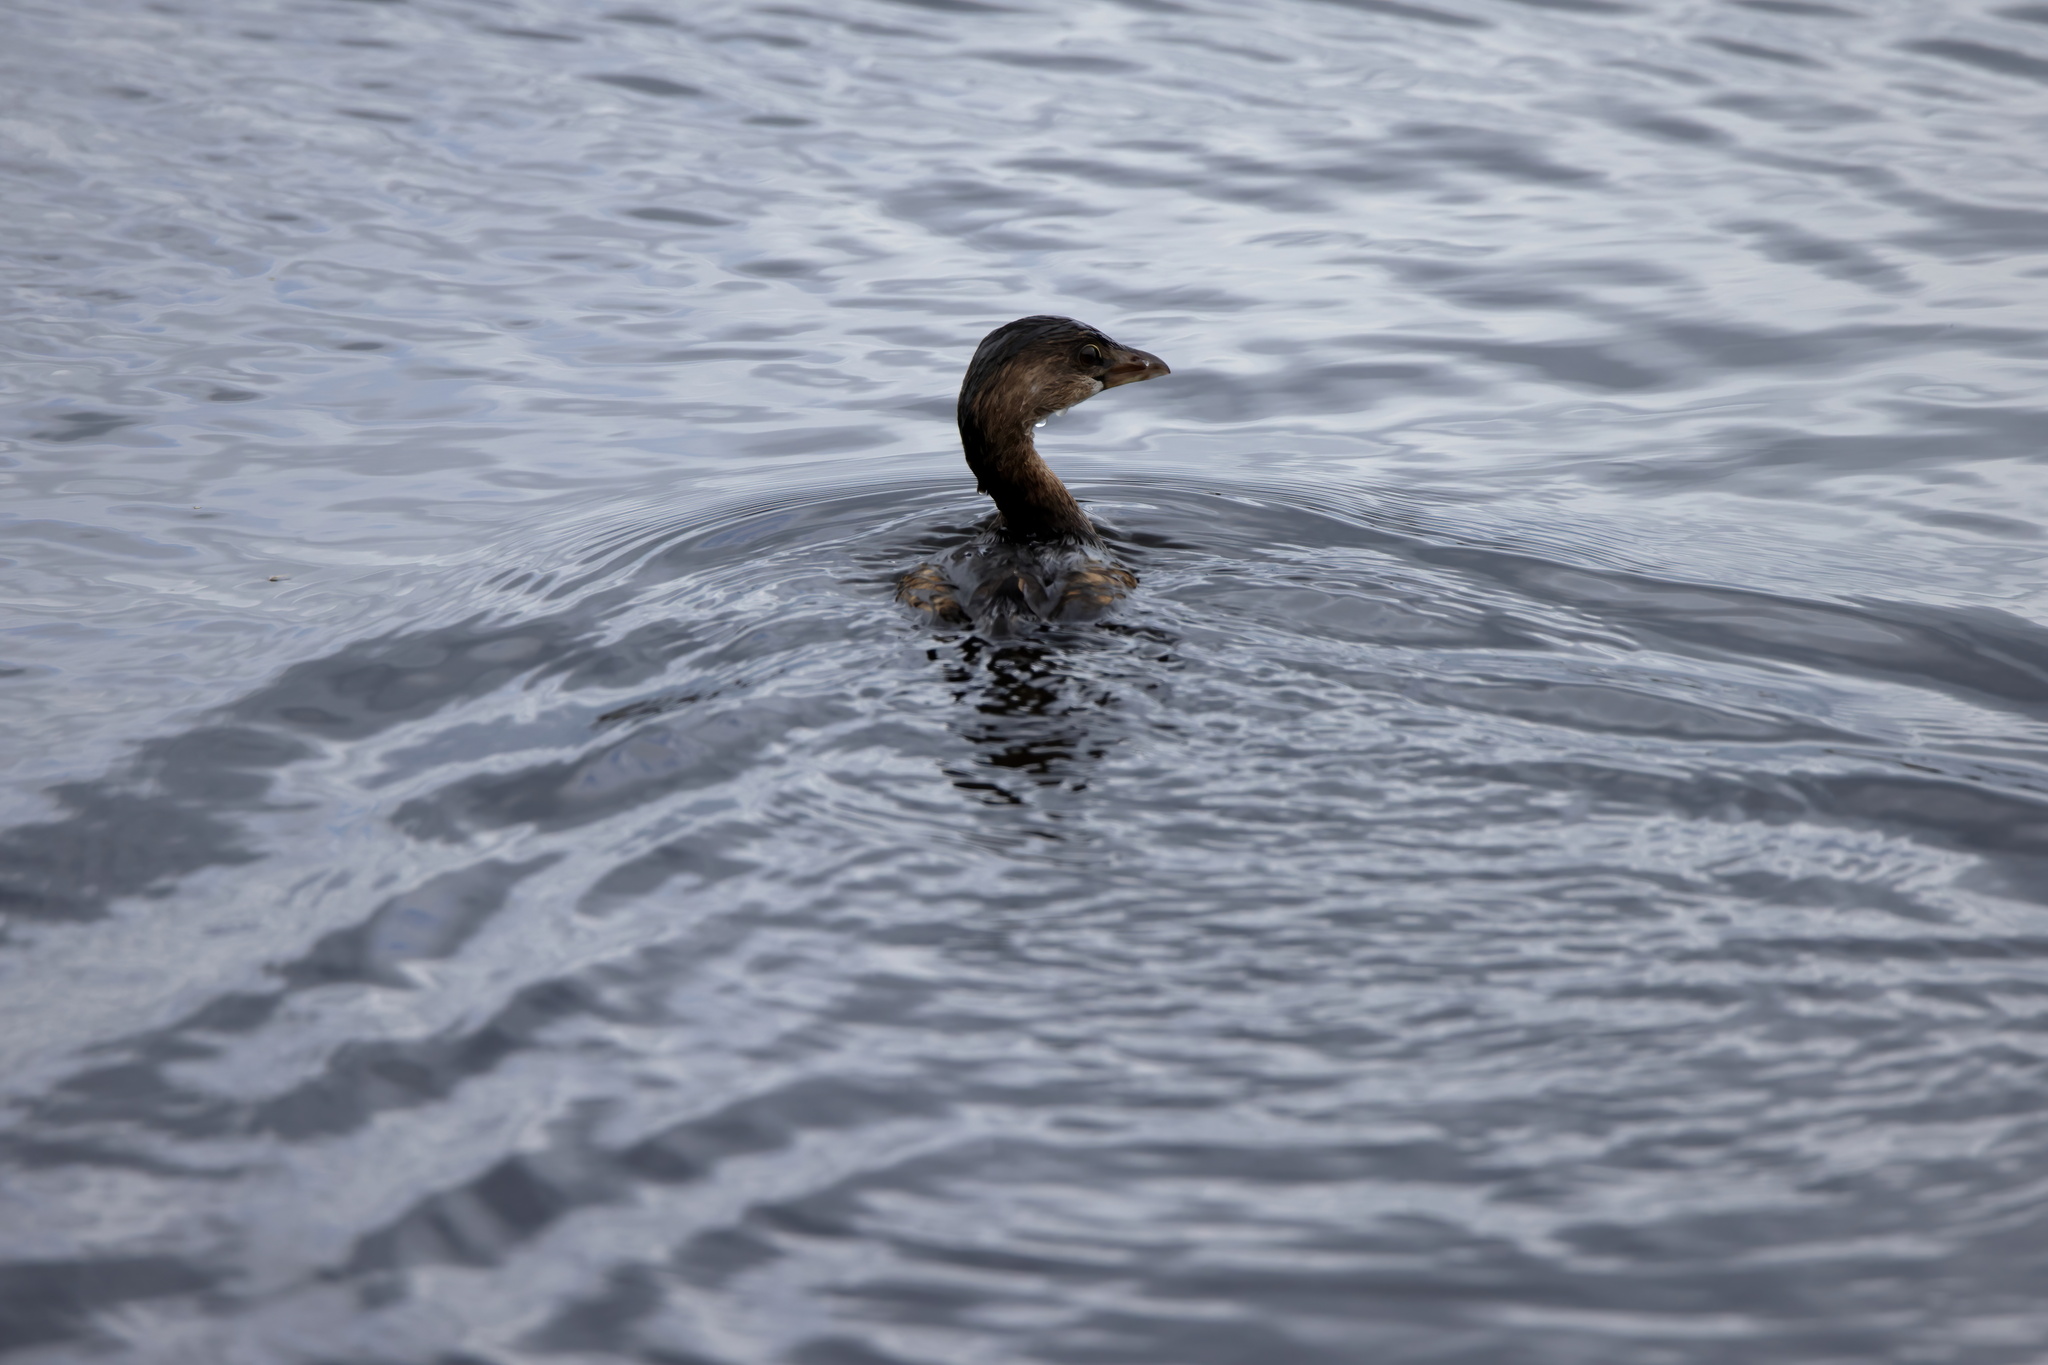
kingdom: Animalia
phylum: Chordata
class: Aves
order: Podicipediformes
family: Podicipedidae
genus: Podilymbus
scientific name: Podilymbus podiceps
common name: Pied-billed grebe
